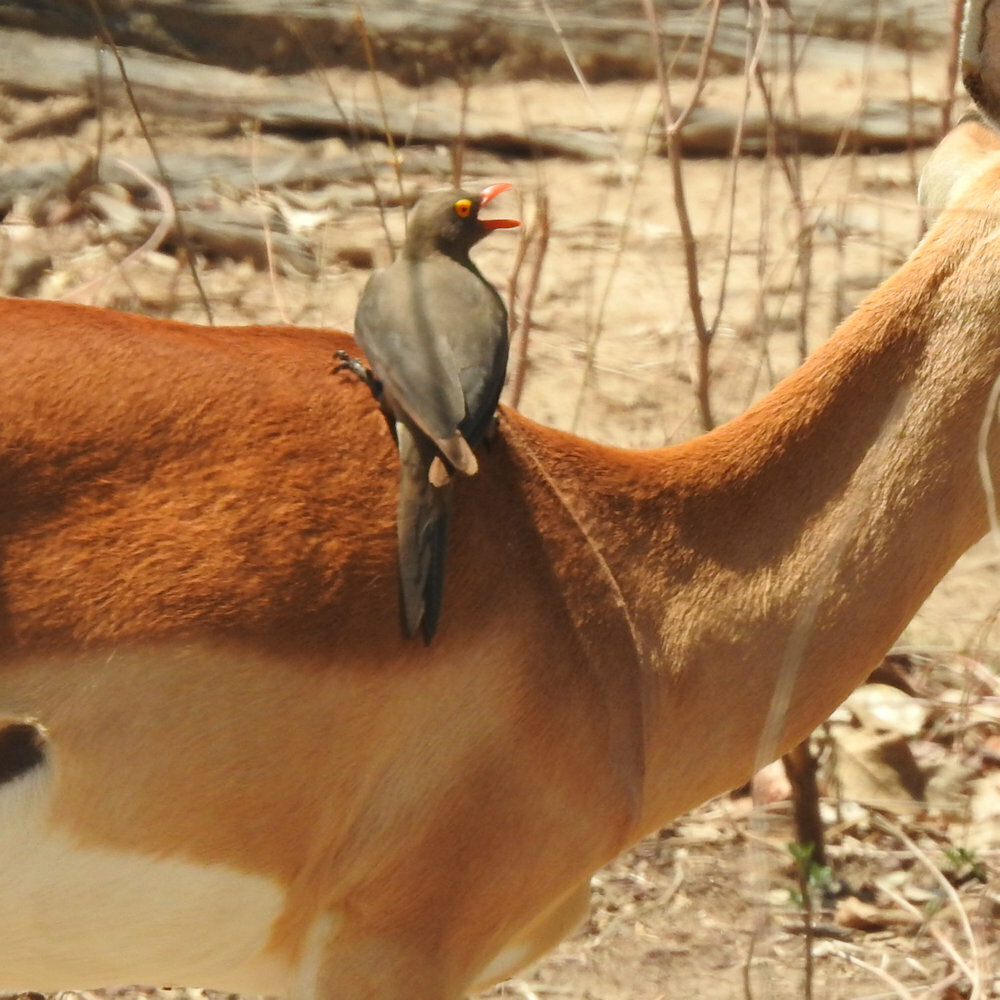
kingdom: Animalia
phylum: Chordata
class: Aves
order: Passeriformes
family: Buphagidae
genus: Buphagus
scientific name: Buphagus erythrorhynchus
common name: Red-billed oxpecker
